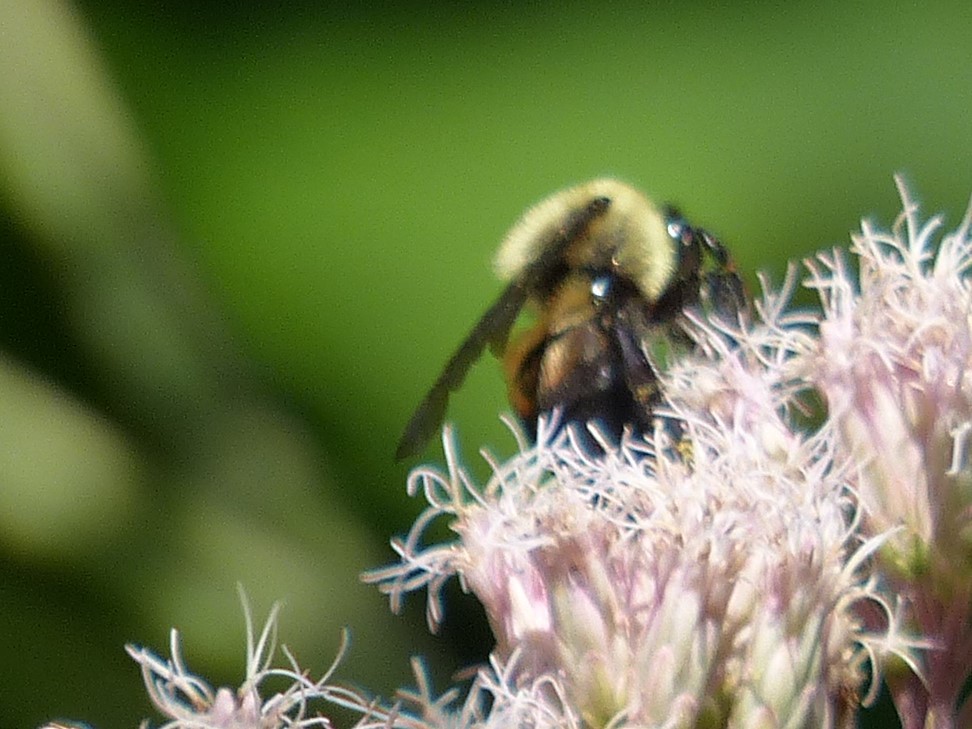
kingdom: Animalia
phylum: Arthropoda
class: Insecta
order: Hymenoptera
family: Apidae
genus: Bombus
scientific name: Bombus griseocollis
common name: Brown-belted bumble bee
